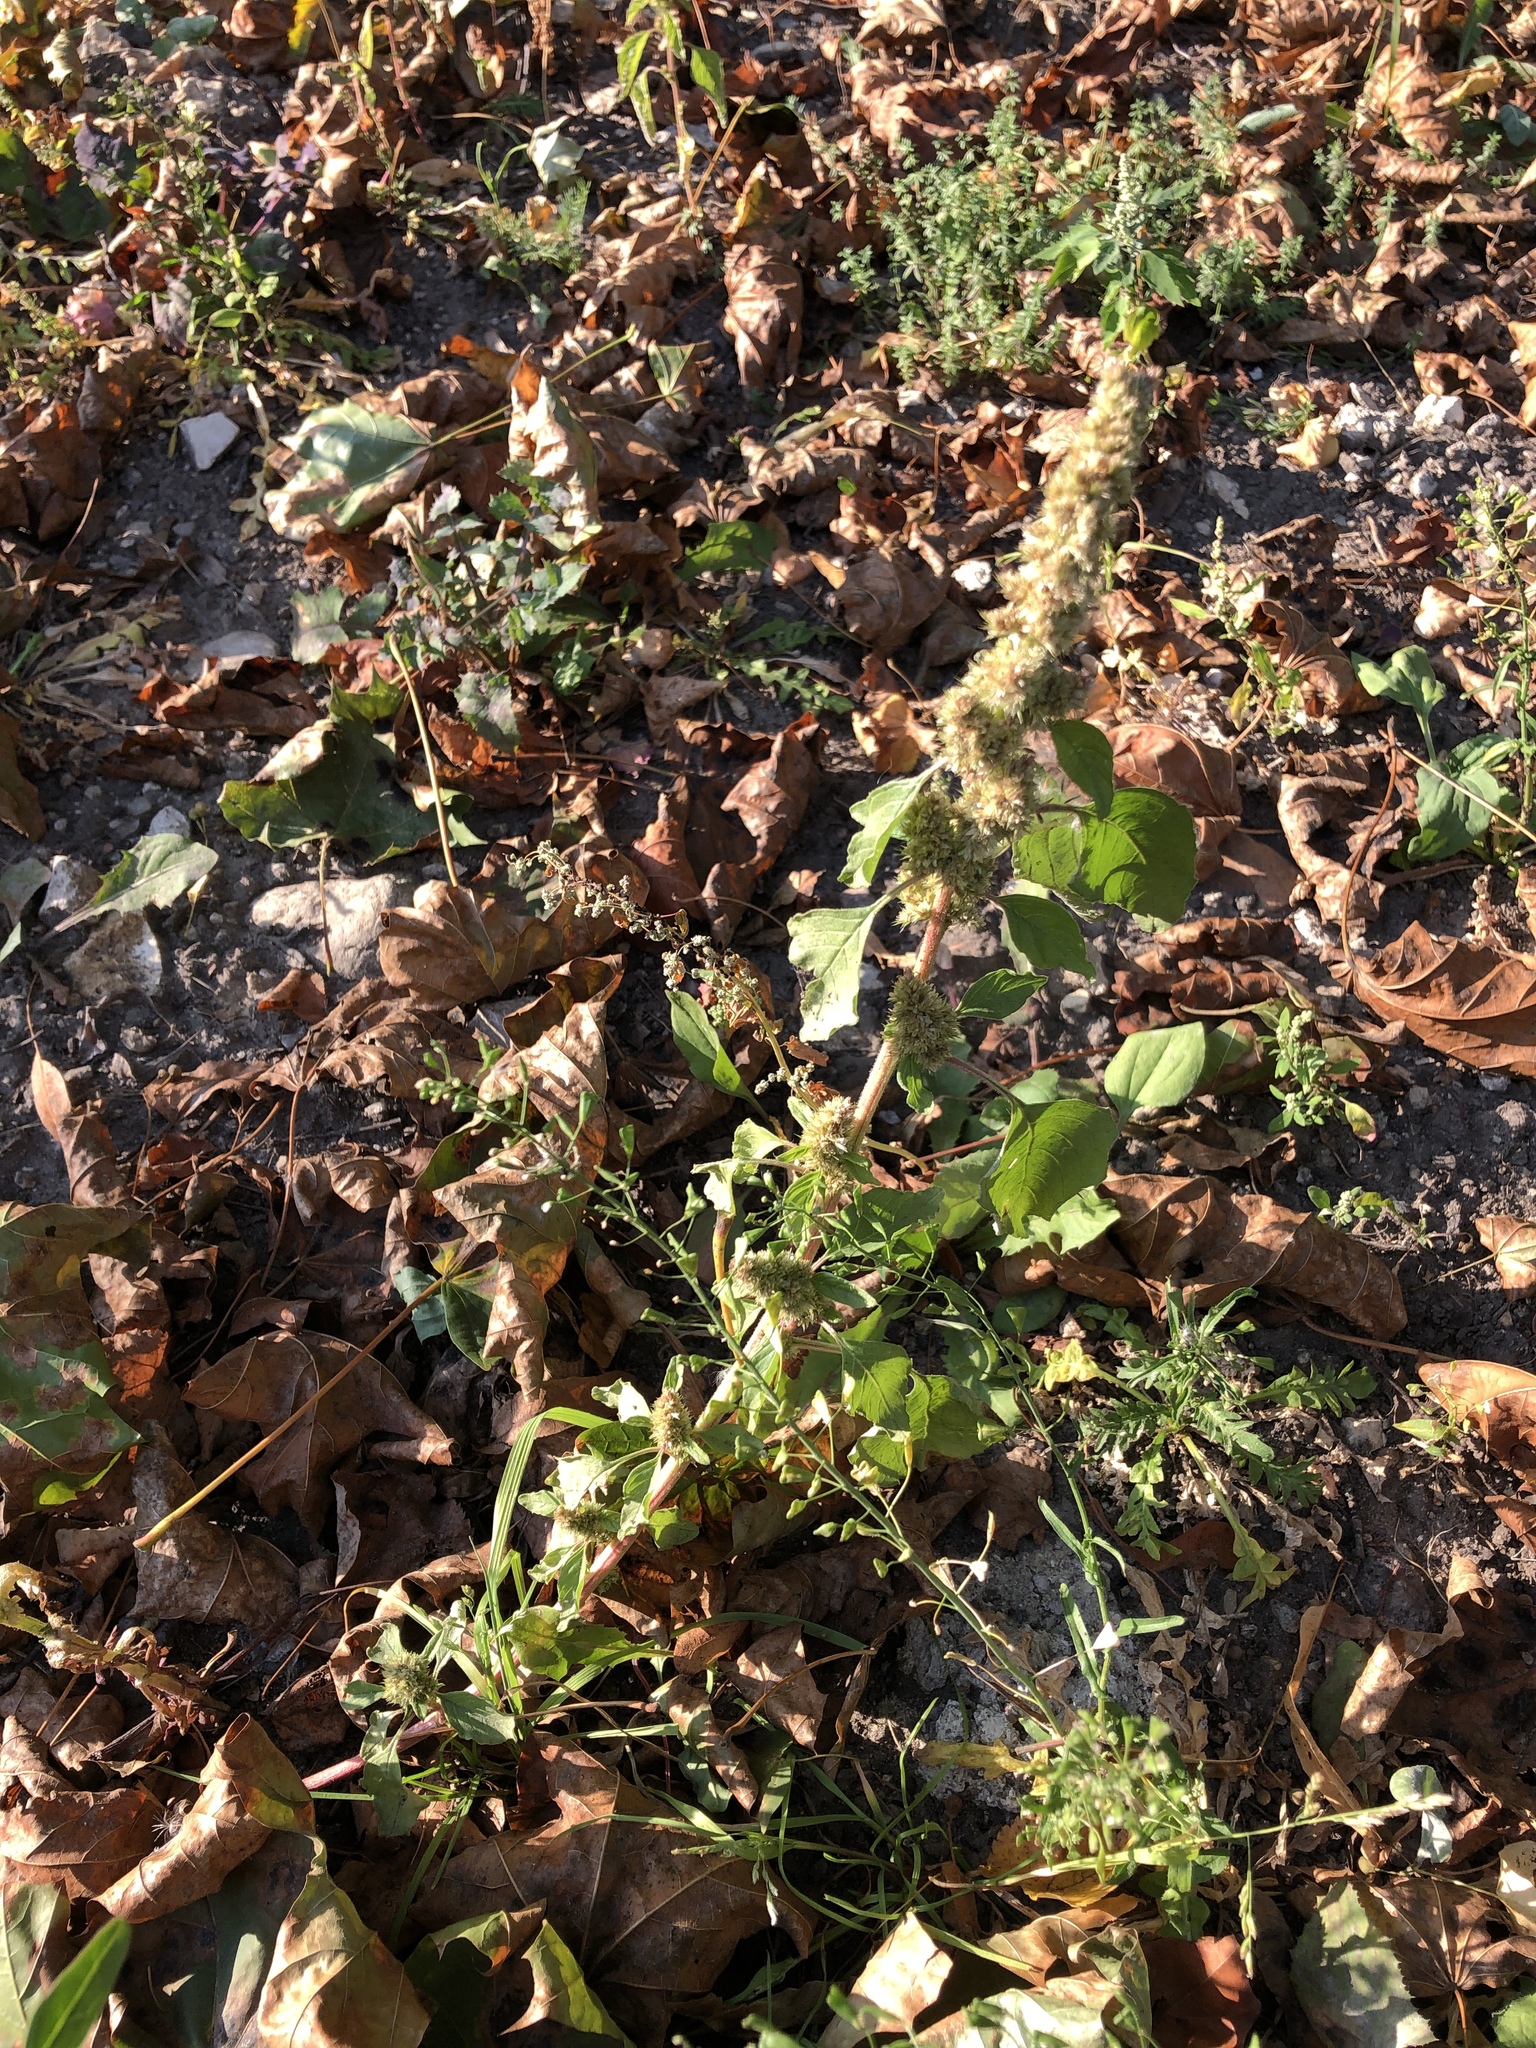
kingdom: Plantae
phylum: Tracheophyta
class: Magnoliopsida
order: Caryophyllales
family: Amaranthaceae
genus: Amaranthus
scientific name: Amaranthus retroflexus
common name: Redroot amaranth
